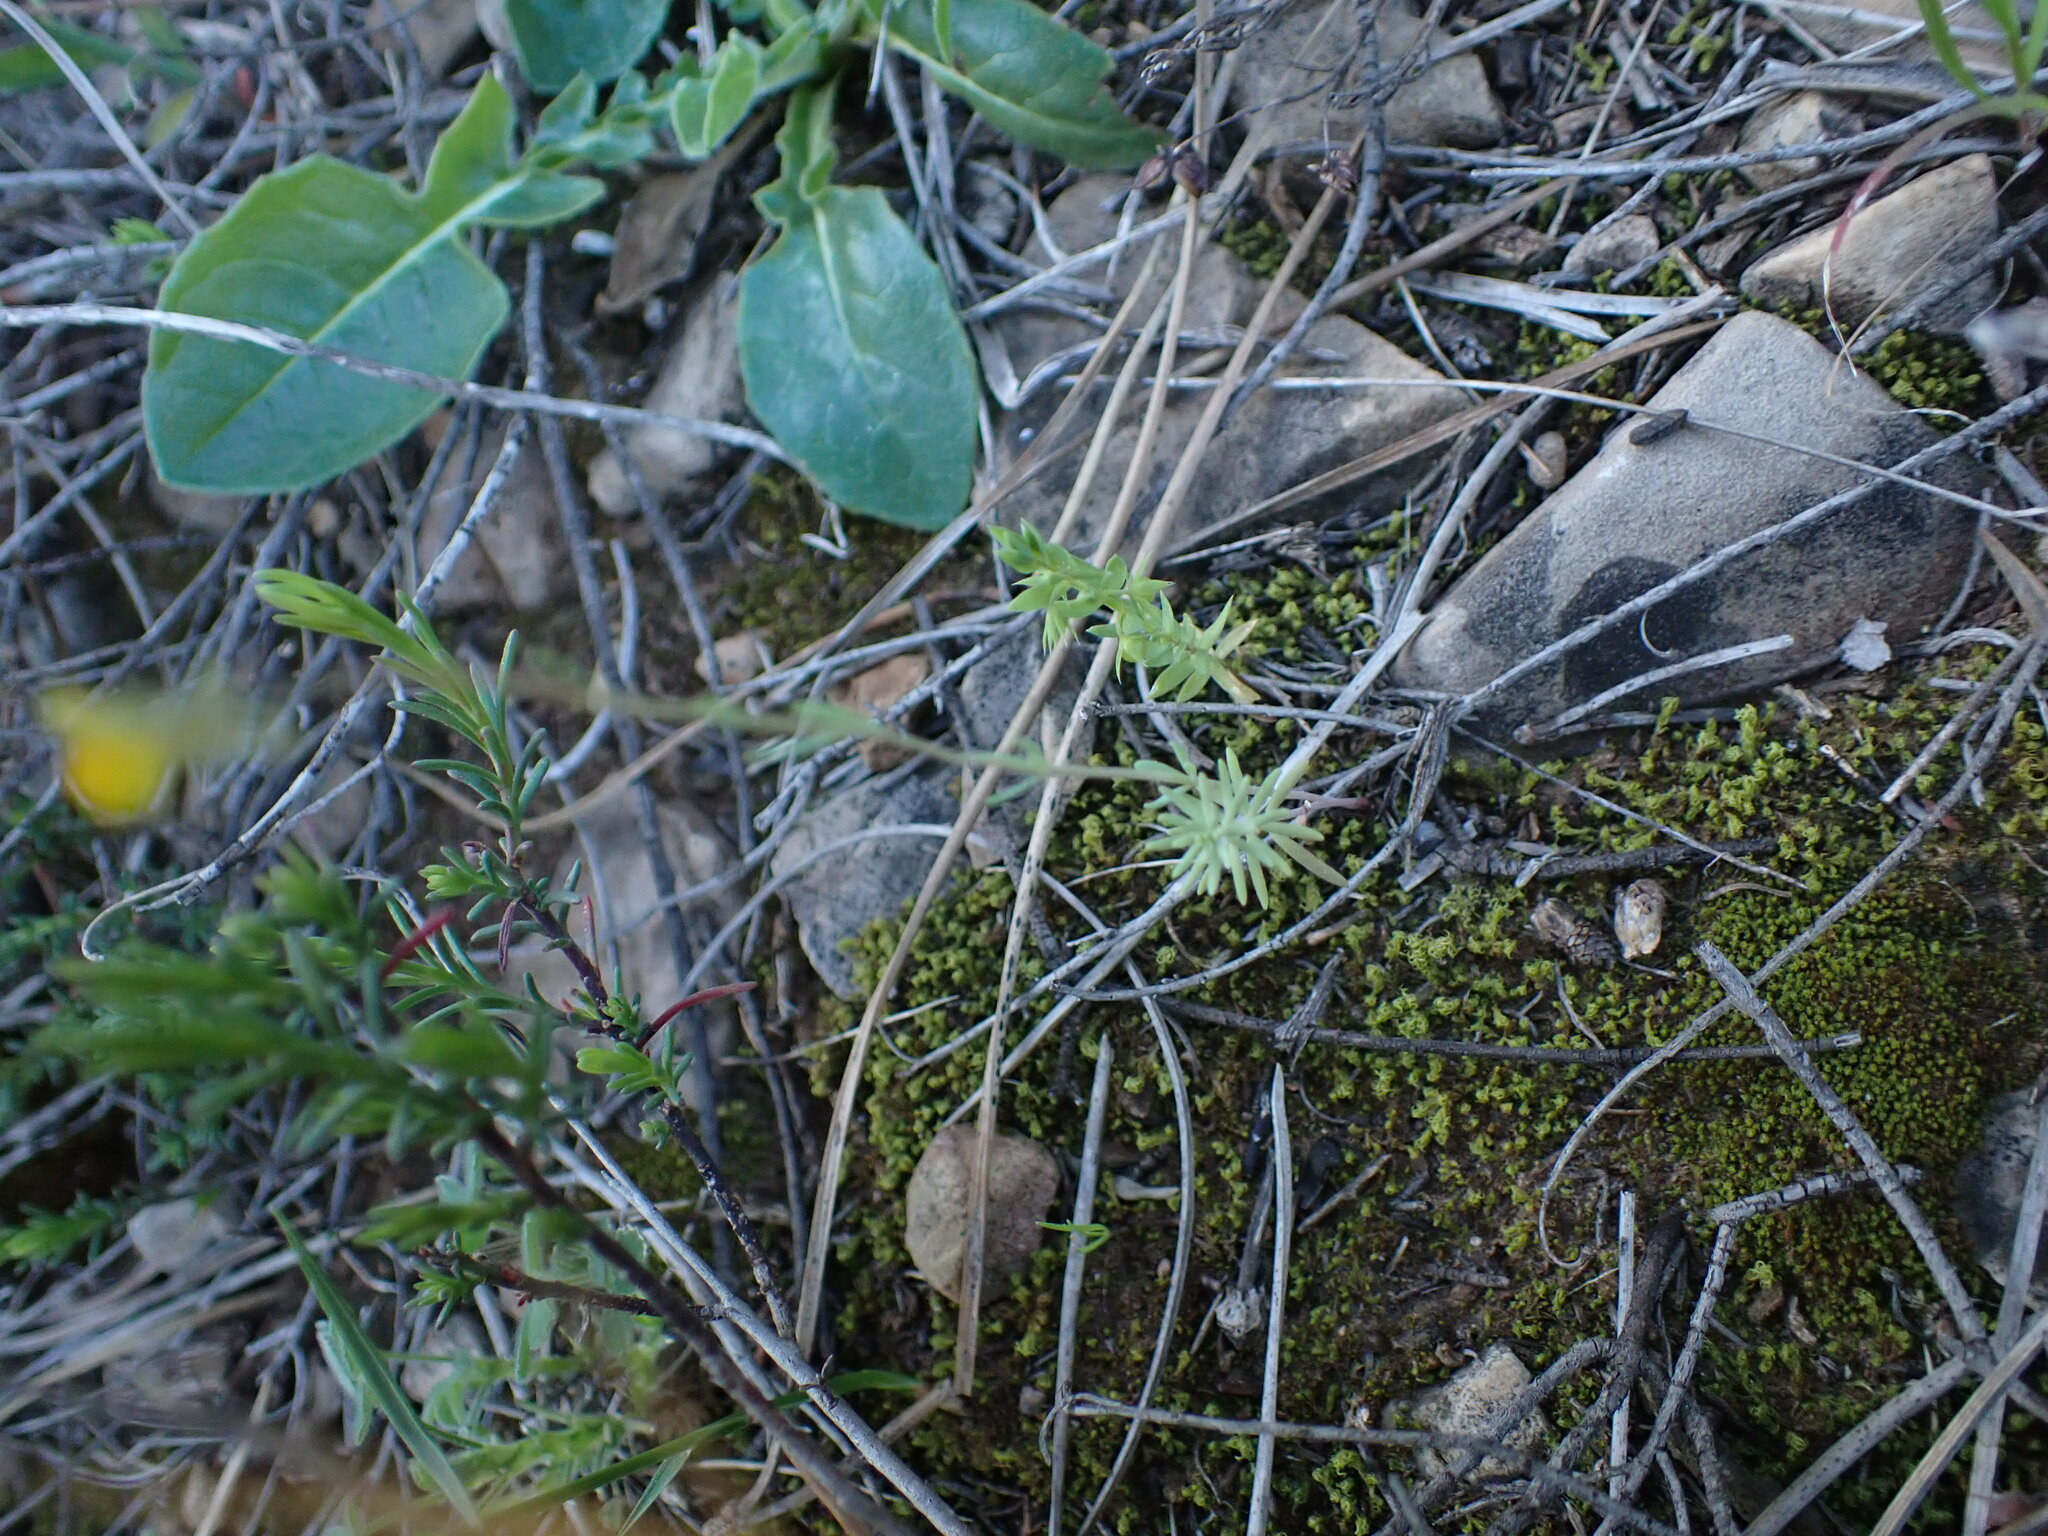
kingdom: Plantae
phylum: Tracheophyta
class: Magnoliopsida
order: Lamiales
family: Plantaginaceae
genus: Linaria
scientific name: Linaria simplex
